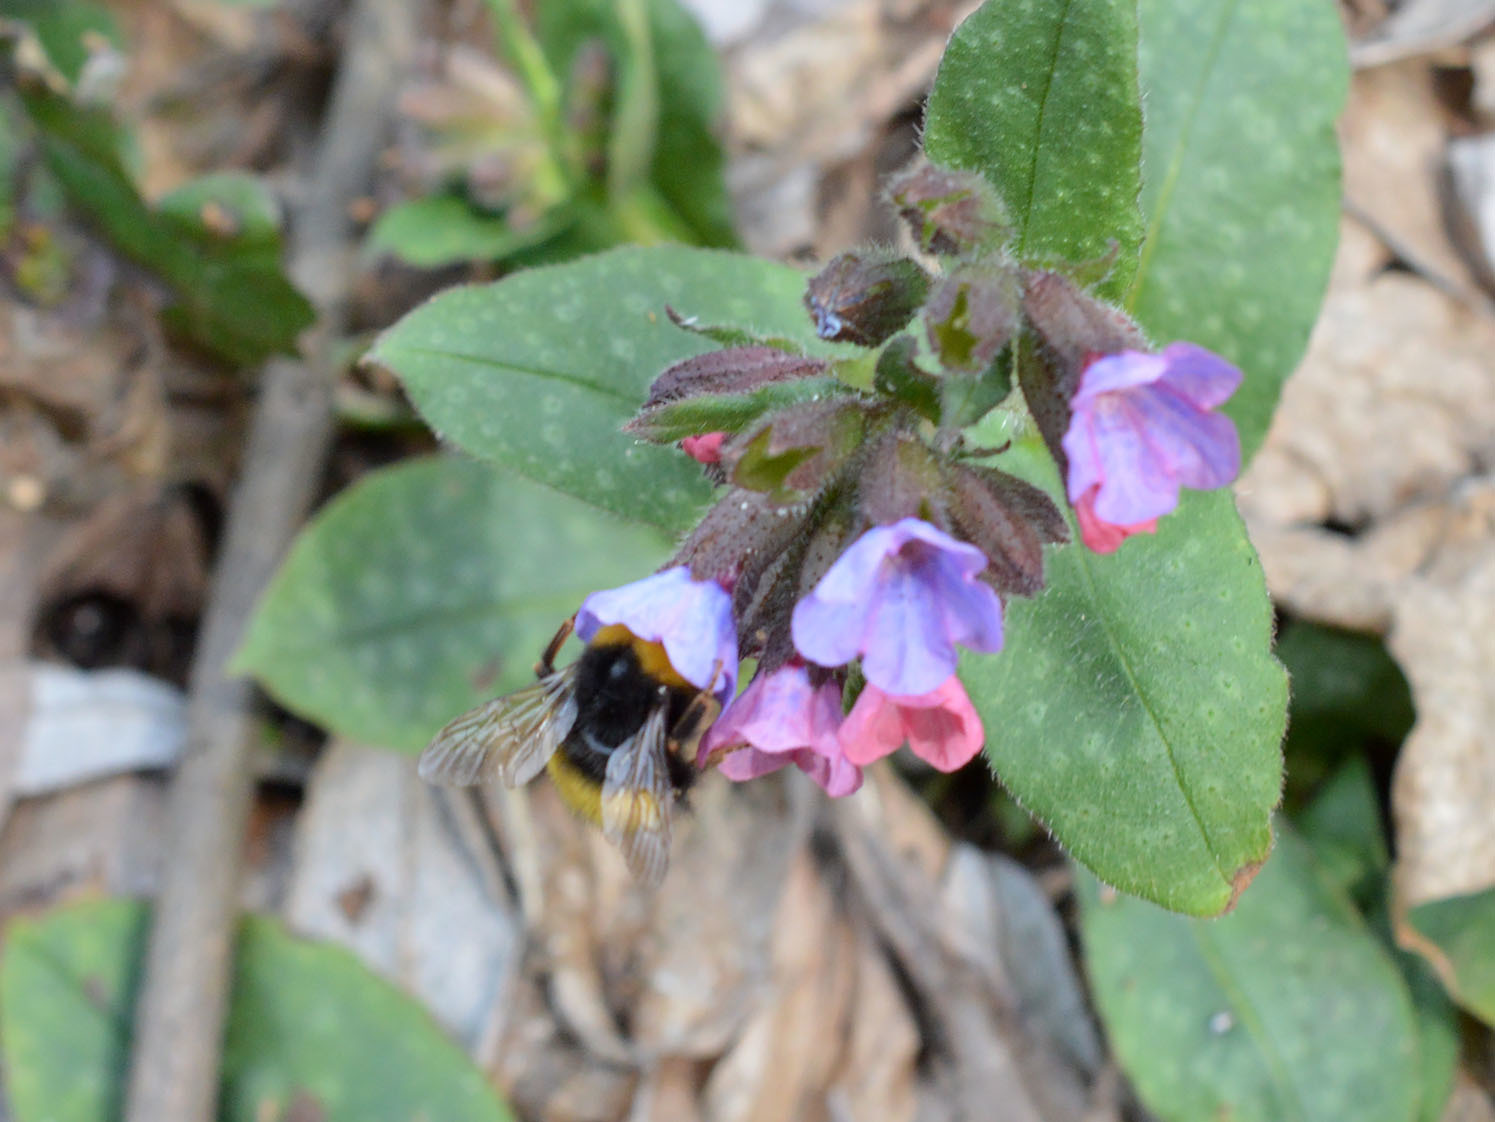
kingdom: Animalia
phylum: Arthropoda
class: Insecta
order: Hymenoptera
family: Apidae
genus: Bombus
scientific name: Bombus haematurus
